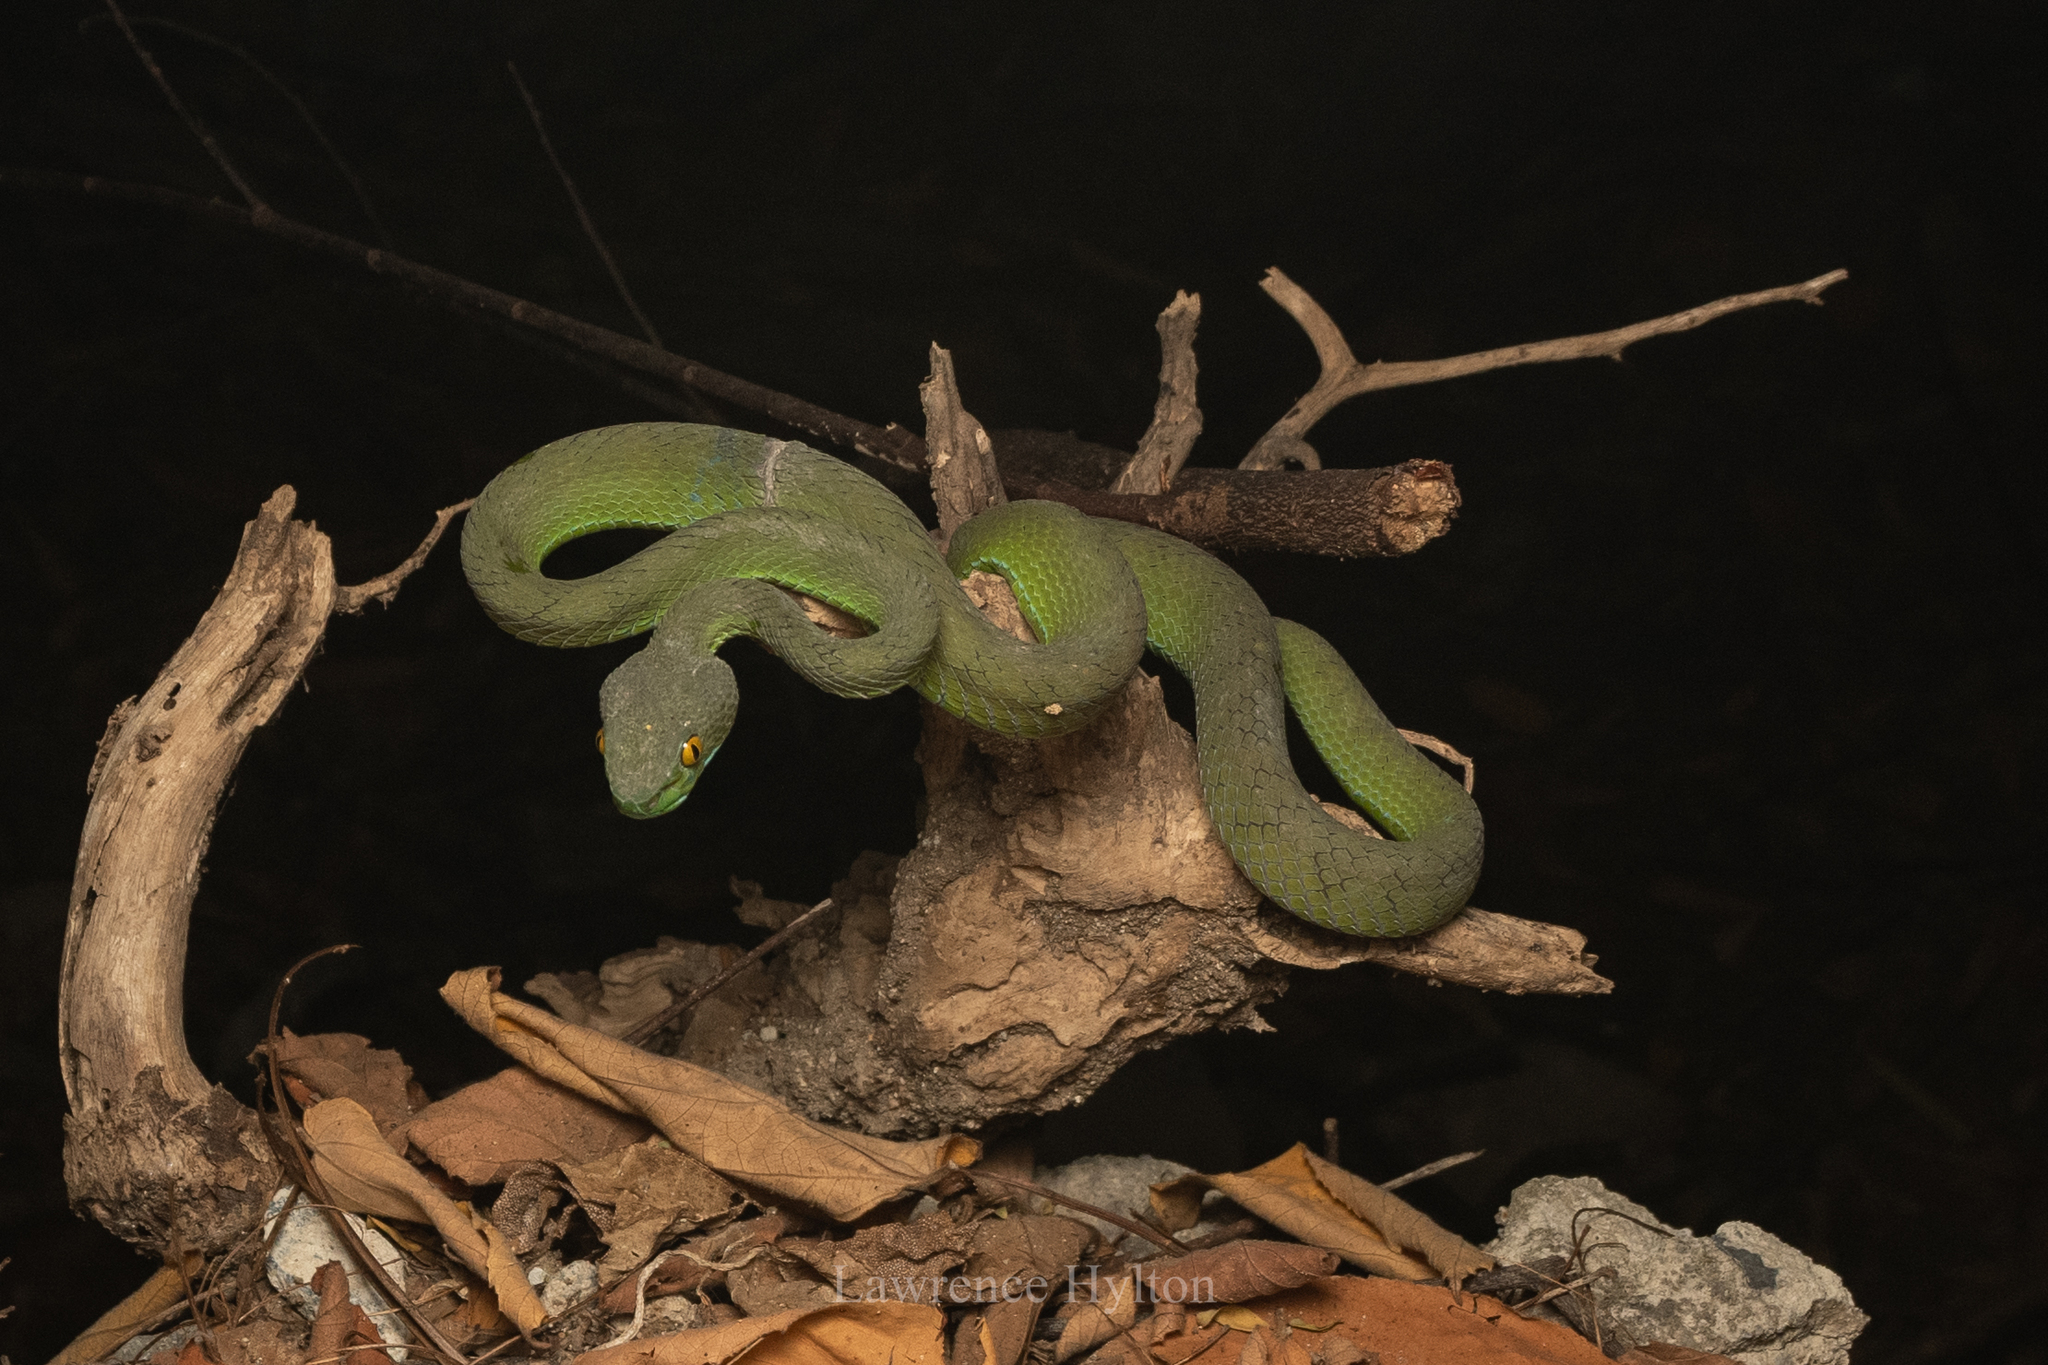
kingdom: Animalia
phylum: Chordata
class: Squamata
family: Viperidae
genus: Trimeresurus
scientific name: Trimeresurus macrops
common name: Kramer's pit viper
